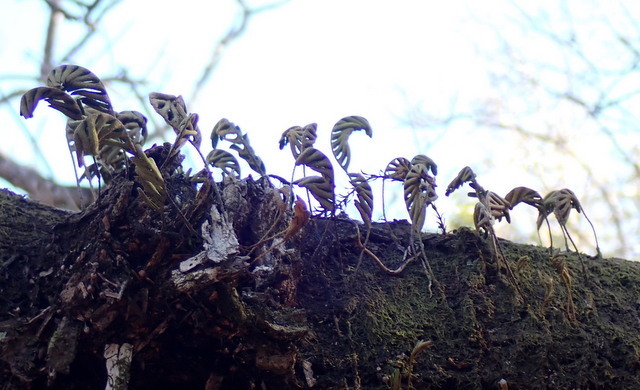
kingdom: Plantae
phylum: Tracheophyta
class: Polypodiopsida
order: Polypodiales
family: Polypodiaceae
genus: Pleopeltis
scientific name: Pleopeltis michauxiana
